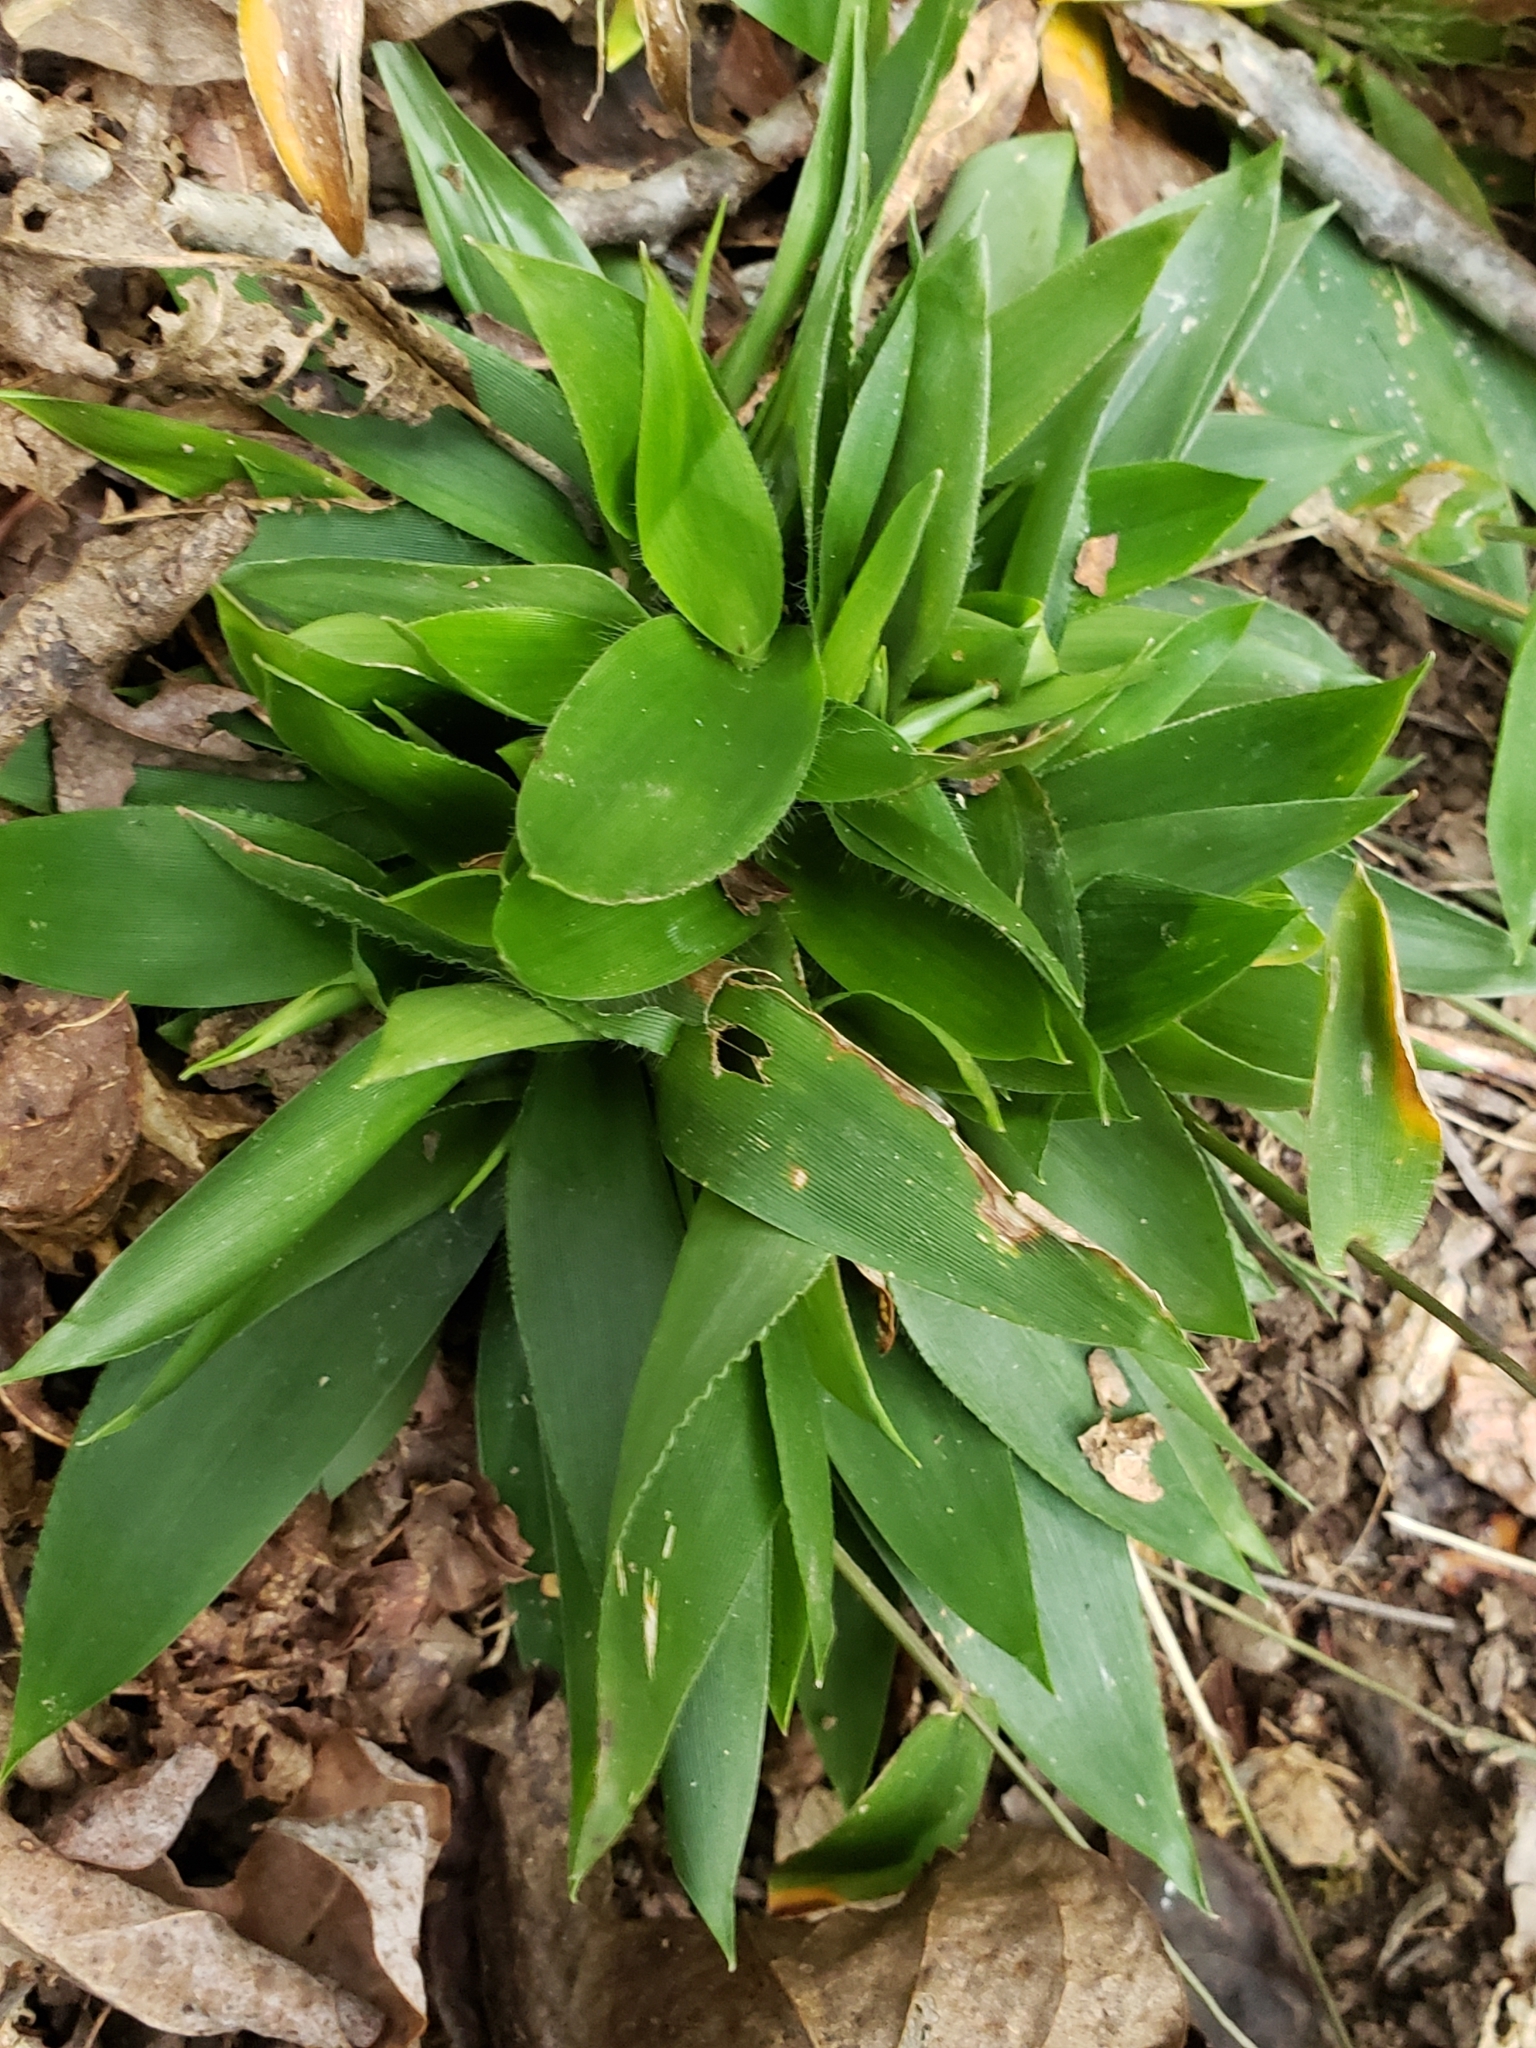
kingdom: Plantae
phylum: Tracheophyta
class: Liliopsida
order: Poales
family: Poaceae
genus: Dichanthelium
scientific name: Dichanthelium boscii
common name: Bosc's panic grass
